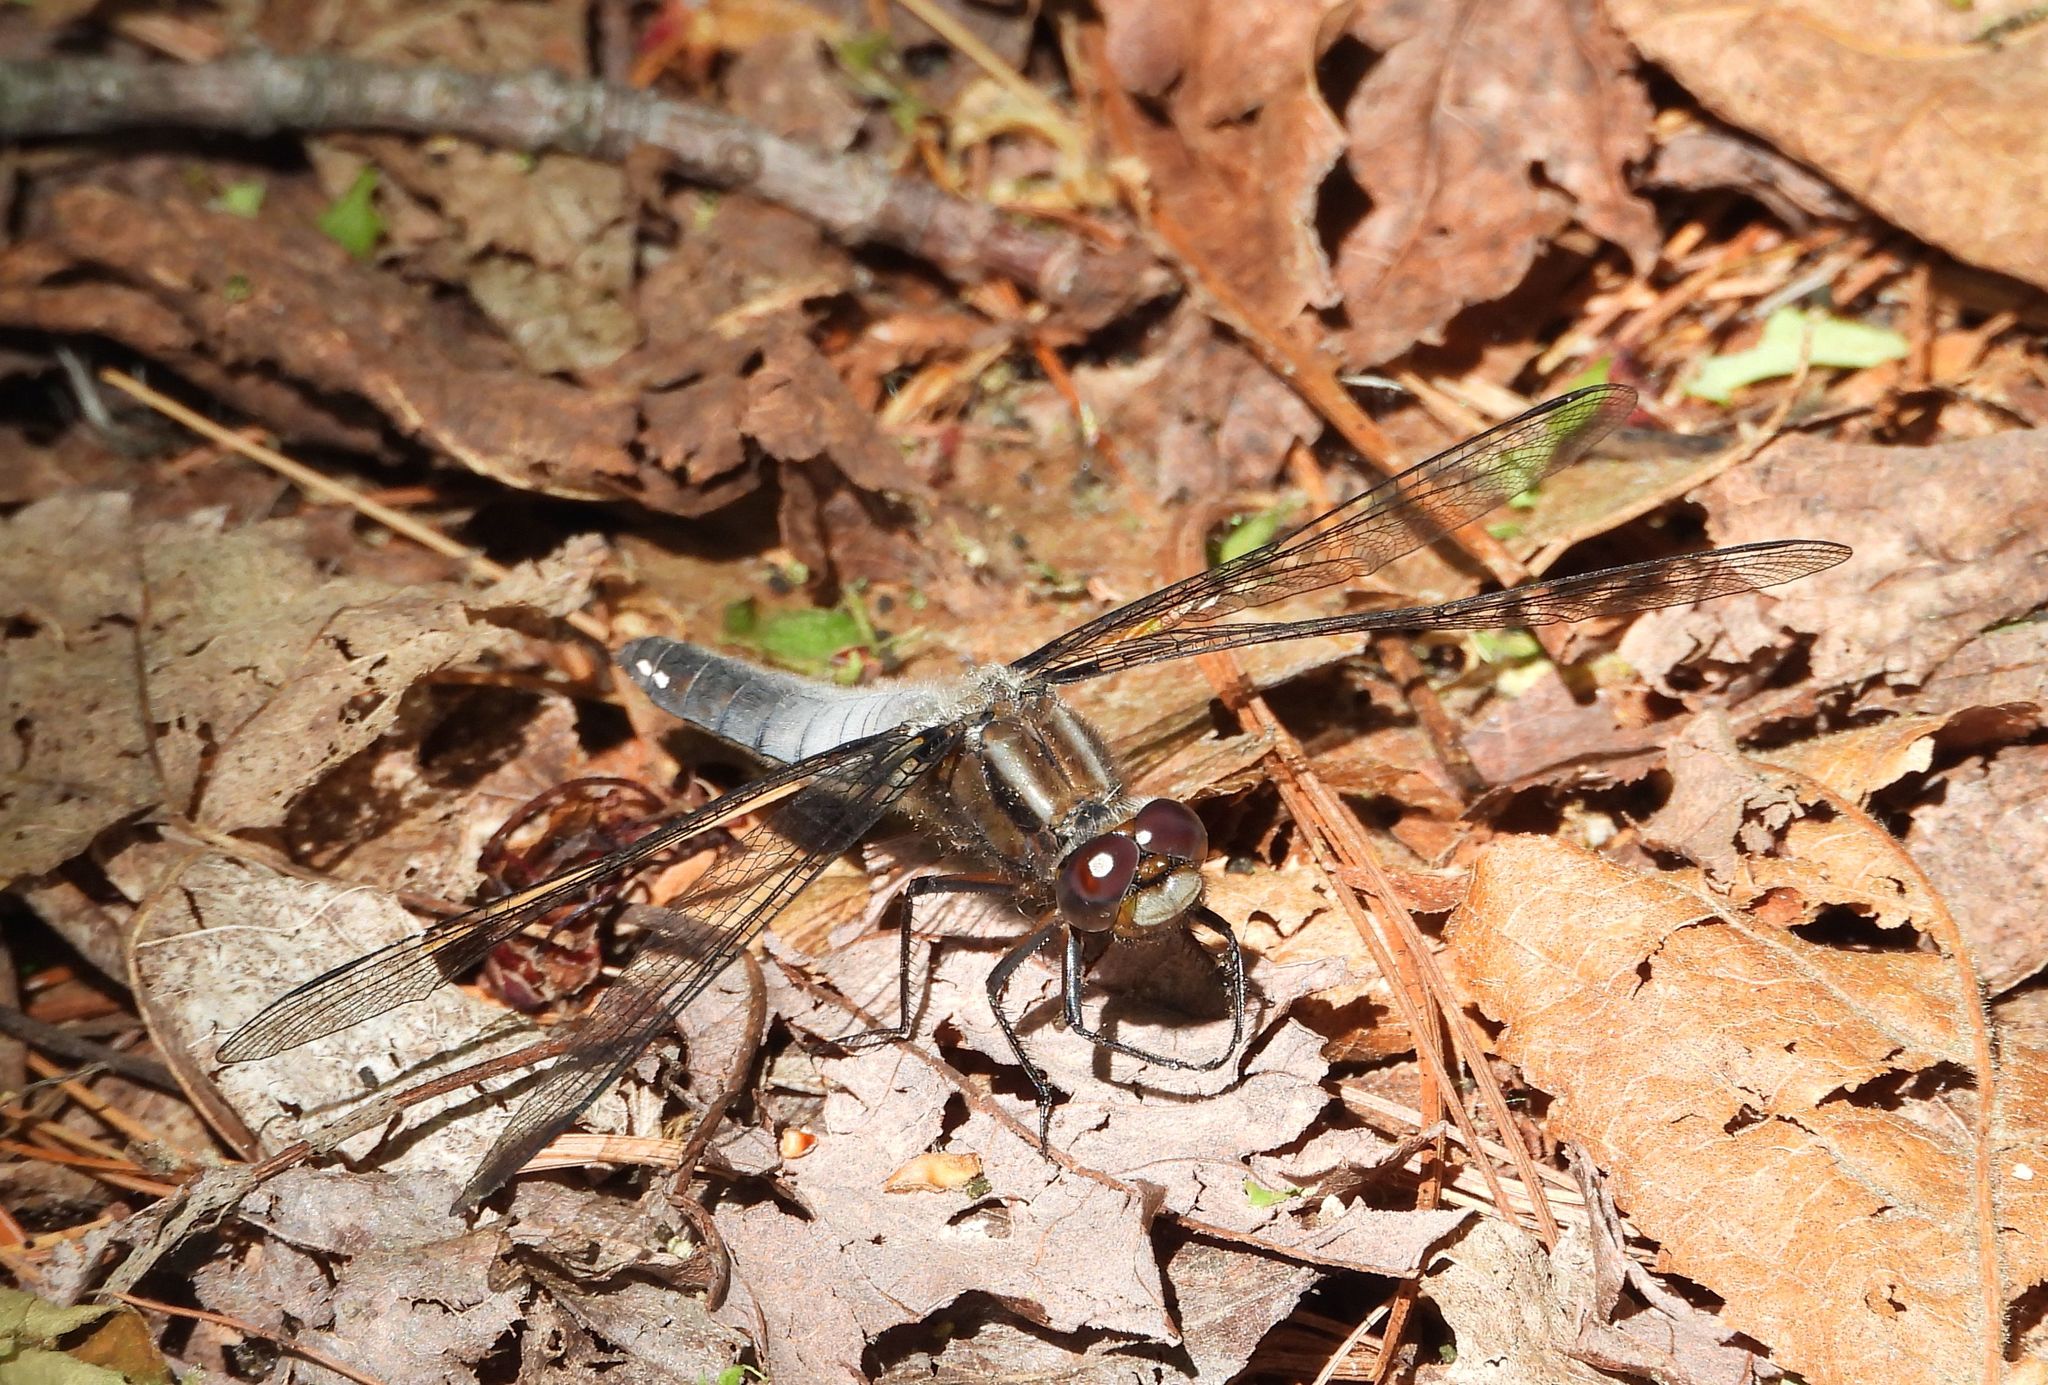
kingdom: Animalia
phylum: Arthropoda
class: Insecta
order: Odonata
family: Libellulidae
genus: Ladona
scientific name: Ladona julia
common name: Chalk-fronted corporal
